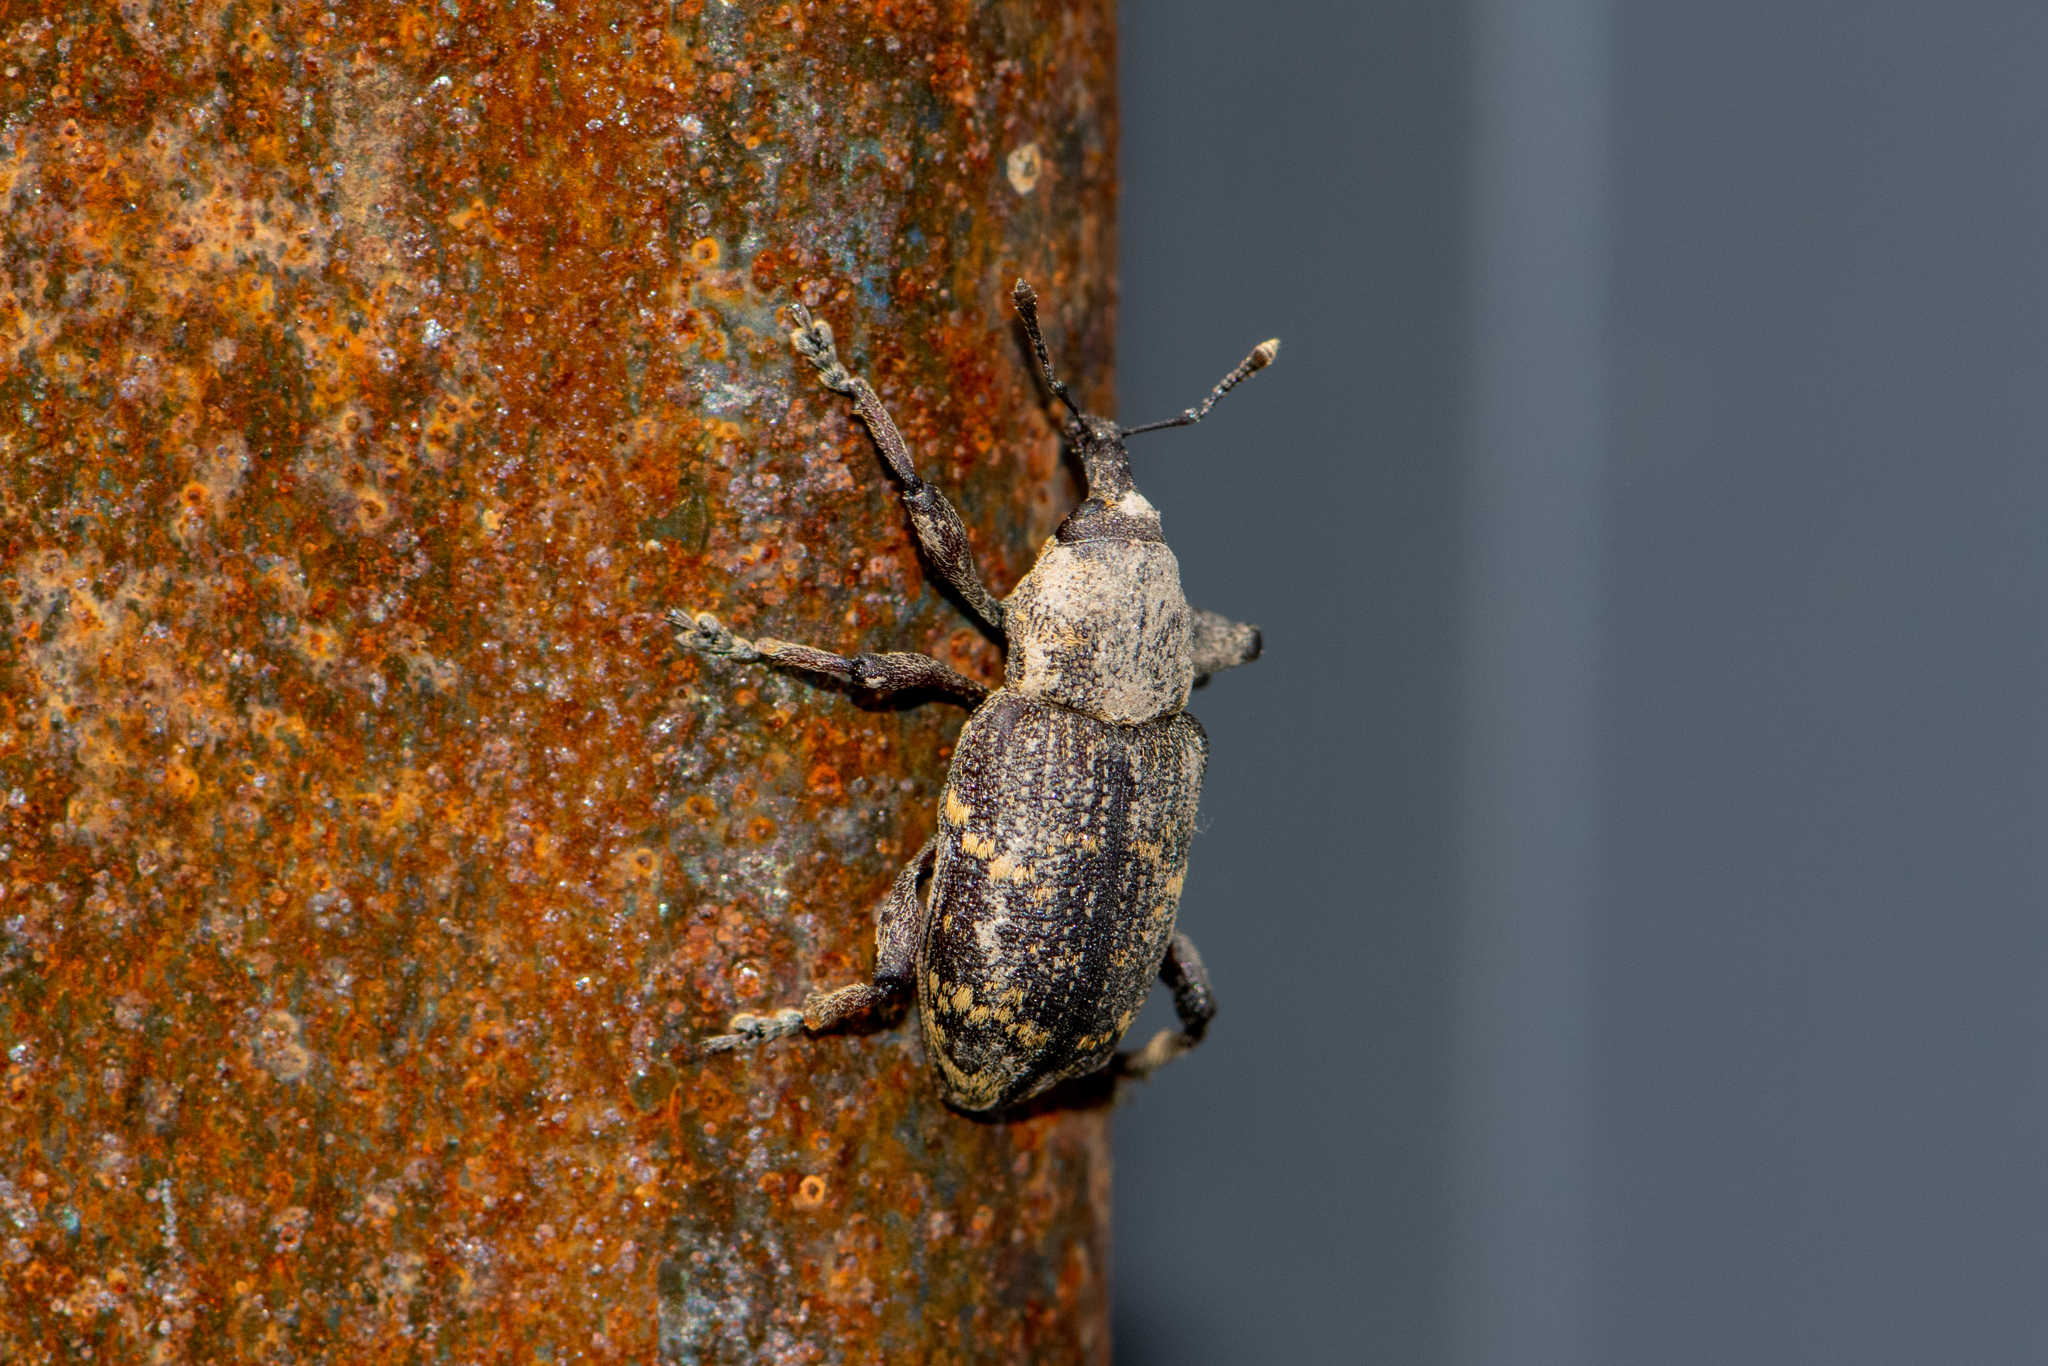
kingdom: Animalia
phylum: Arthropoda
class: Insecta
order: Coleoptera
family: Curculionidae
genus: Hylobius
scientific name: Hylobius abietis
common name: Large pine weevil
